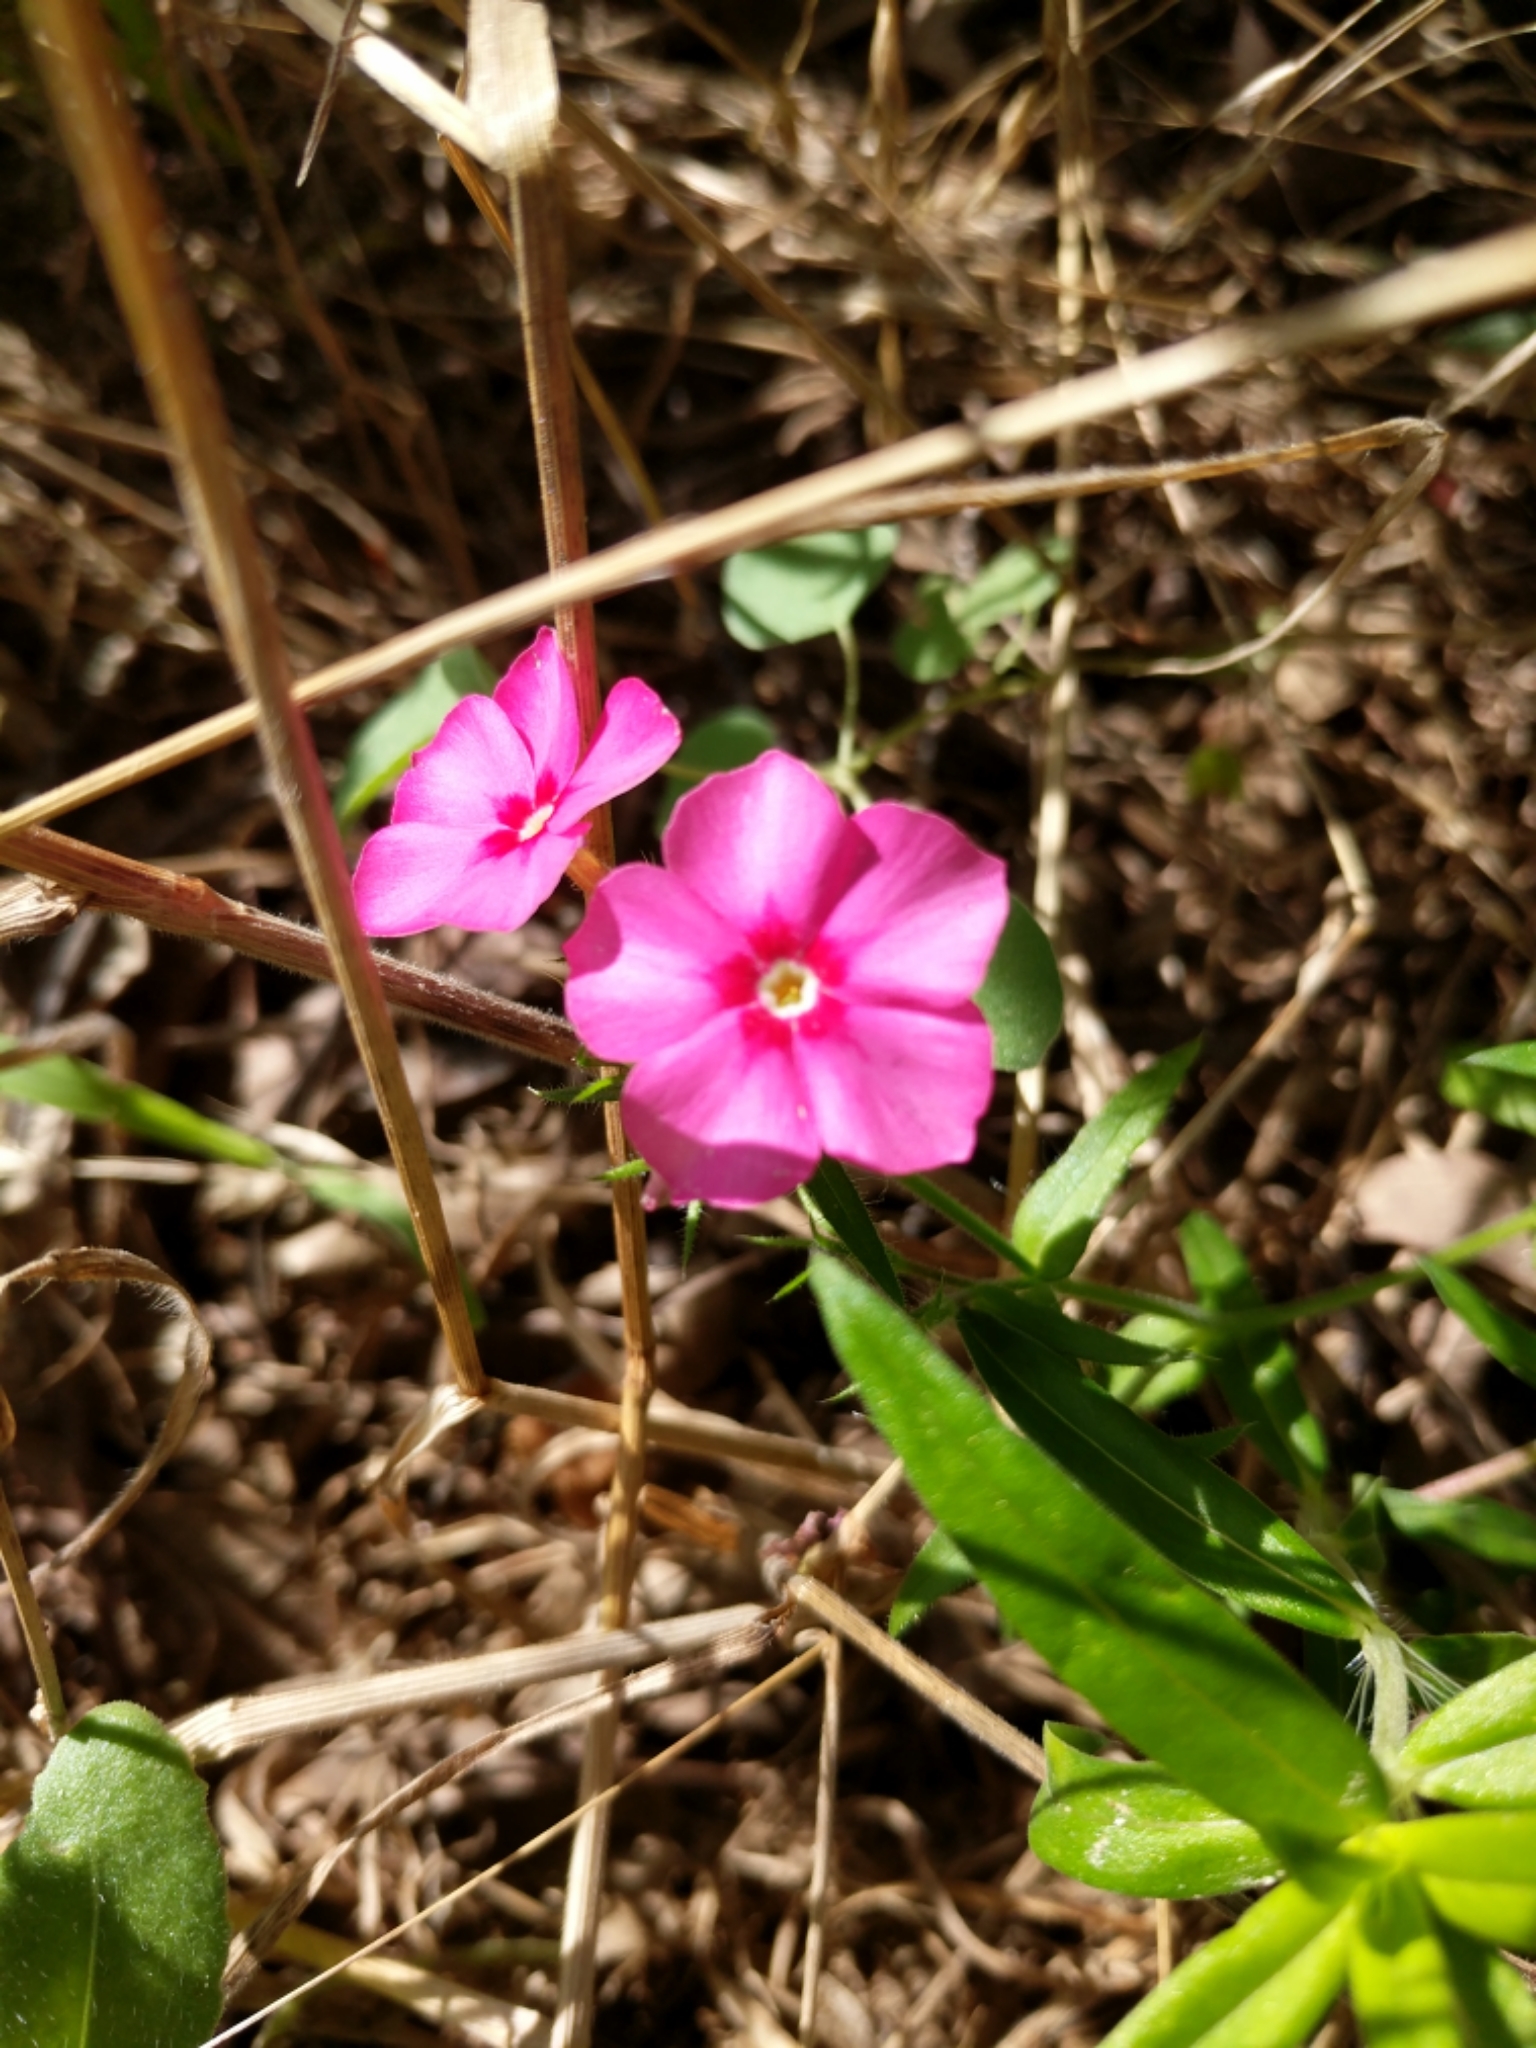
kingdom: Plantae
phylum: Tracheophyta
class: Magnoliopsida
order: Ericales
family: Polemoniaceae
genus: Phlox
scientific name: Phlox drummondii
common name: Drummond's phlox
